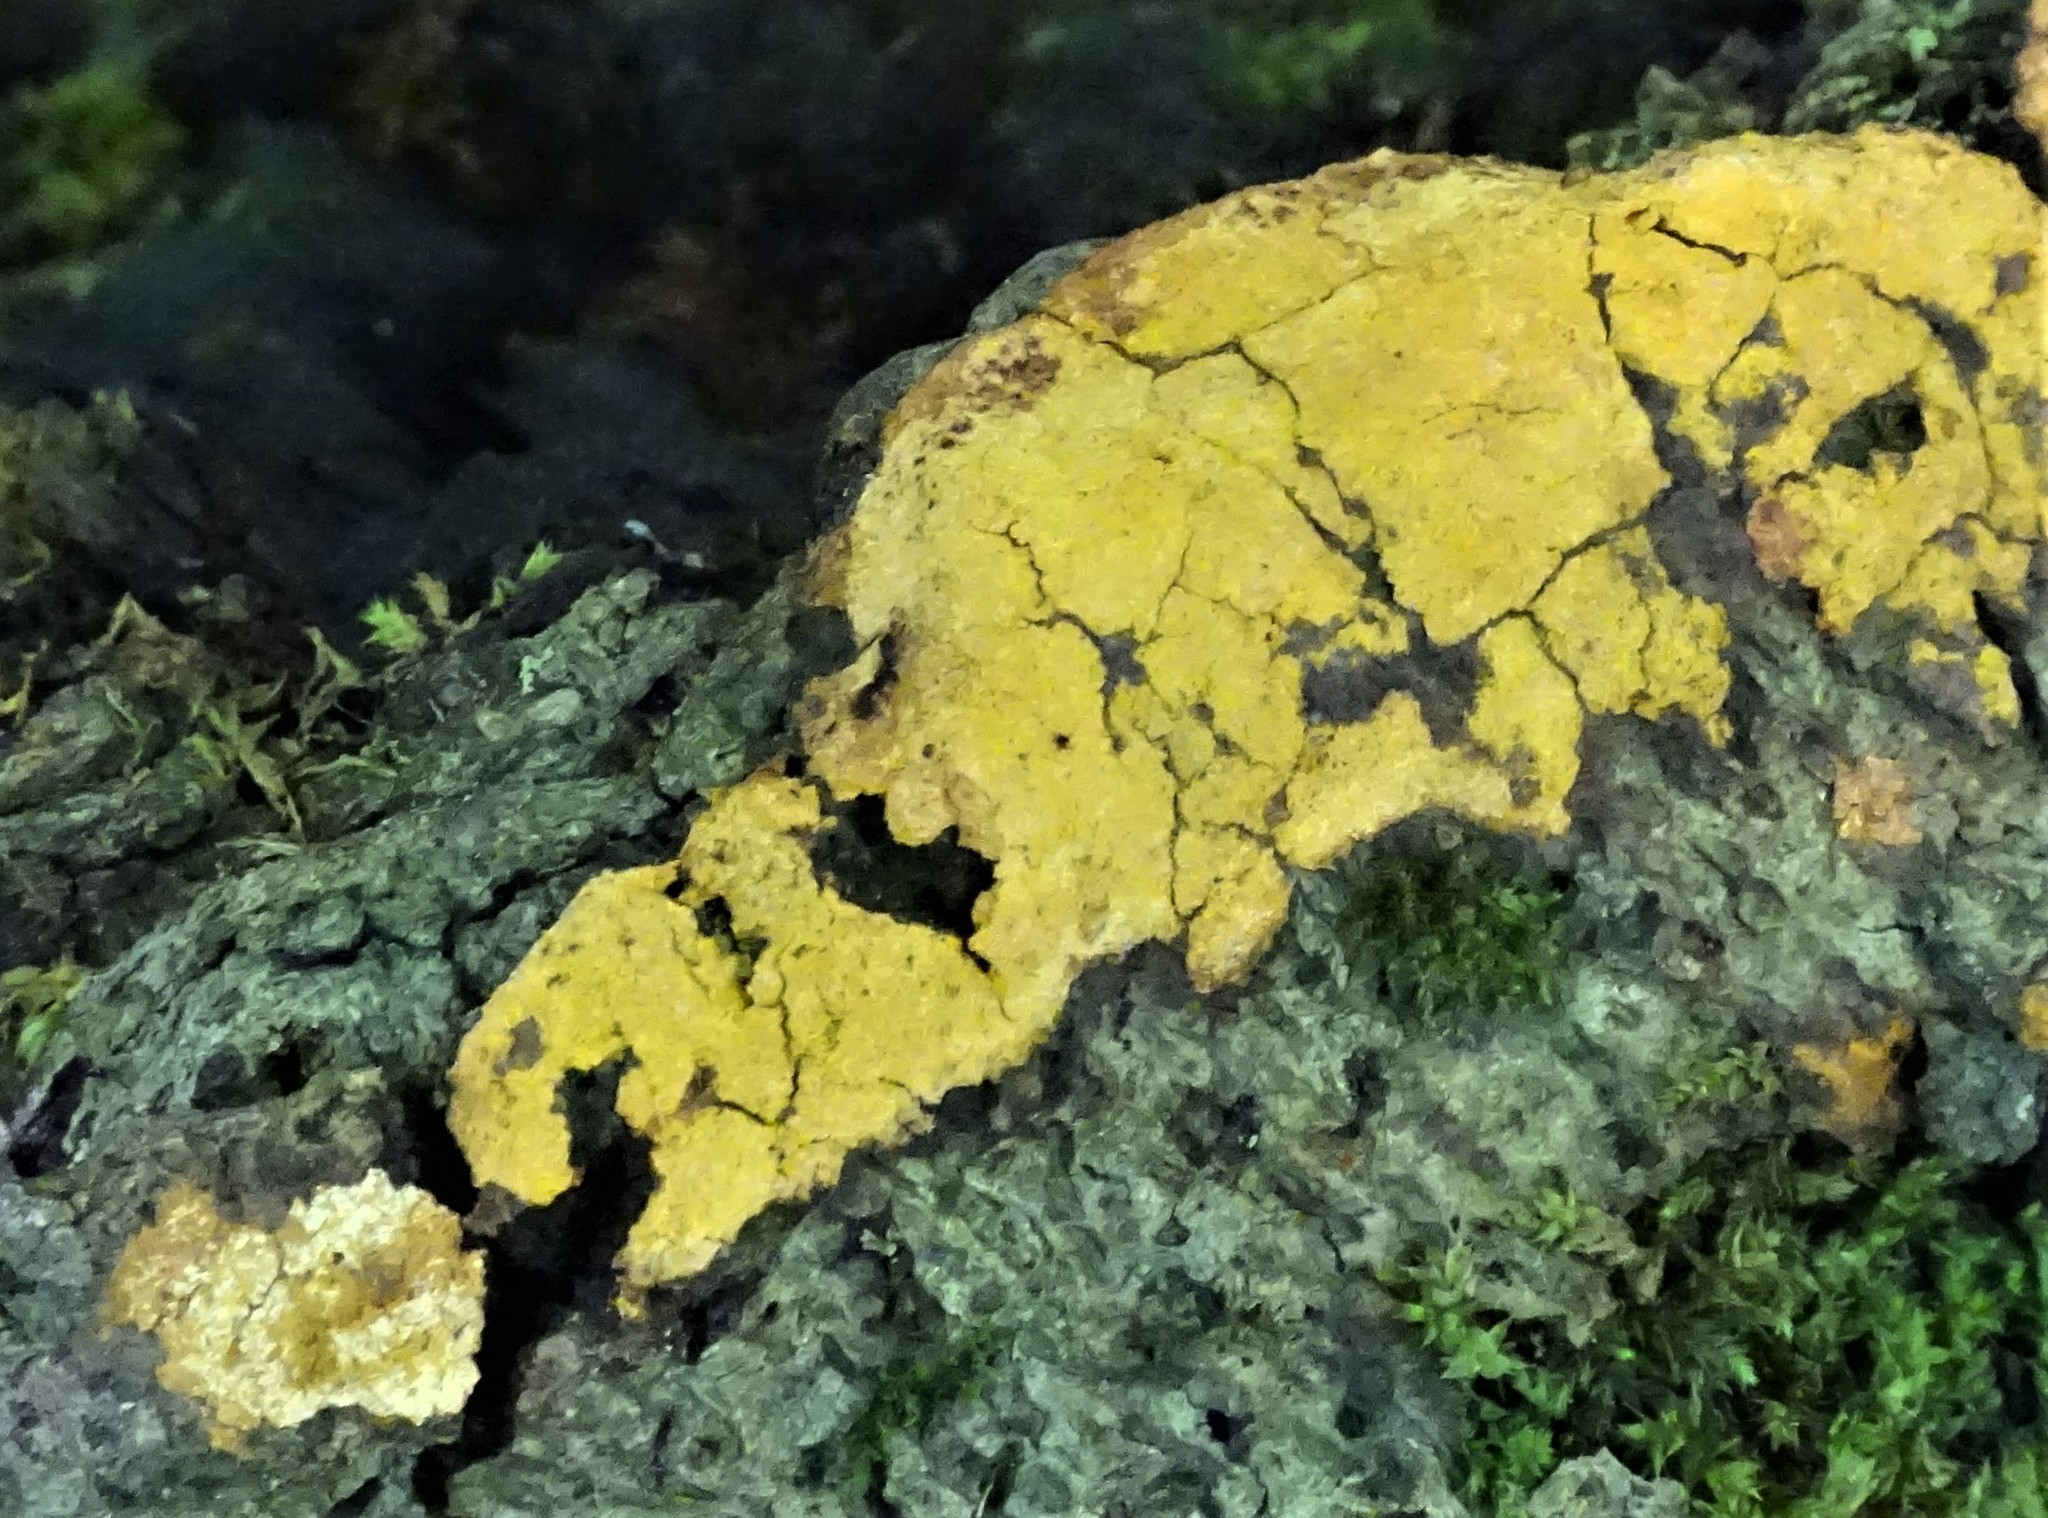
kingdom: Protozoa
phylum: Mycetozoa
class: Myxomycetes
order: Physarales
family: Physaraceae
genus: Fuligo
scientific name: Fuligo septica
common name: Dog vomit slime mold
